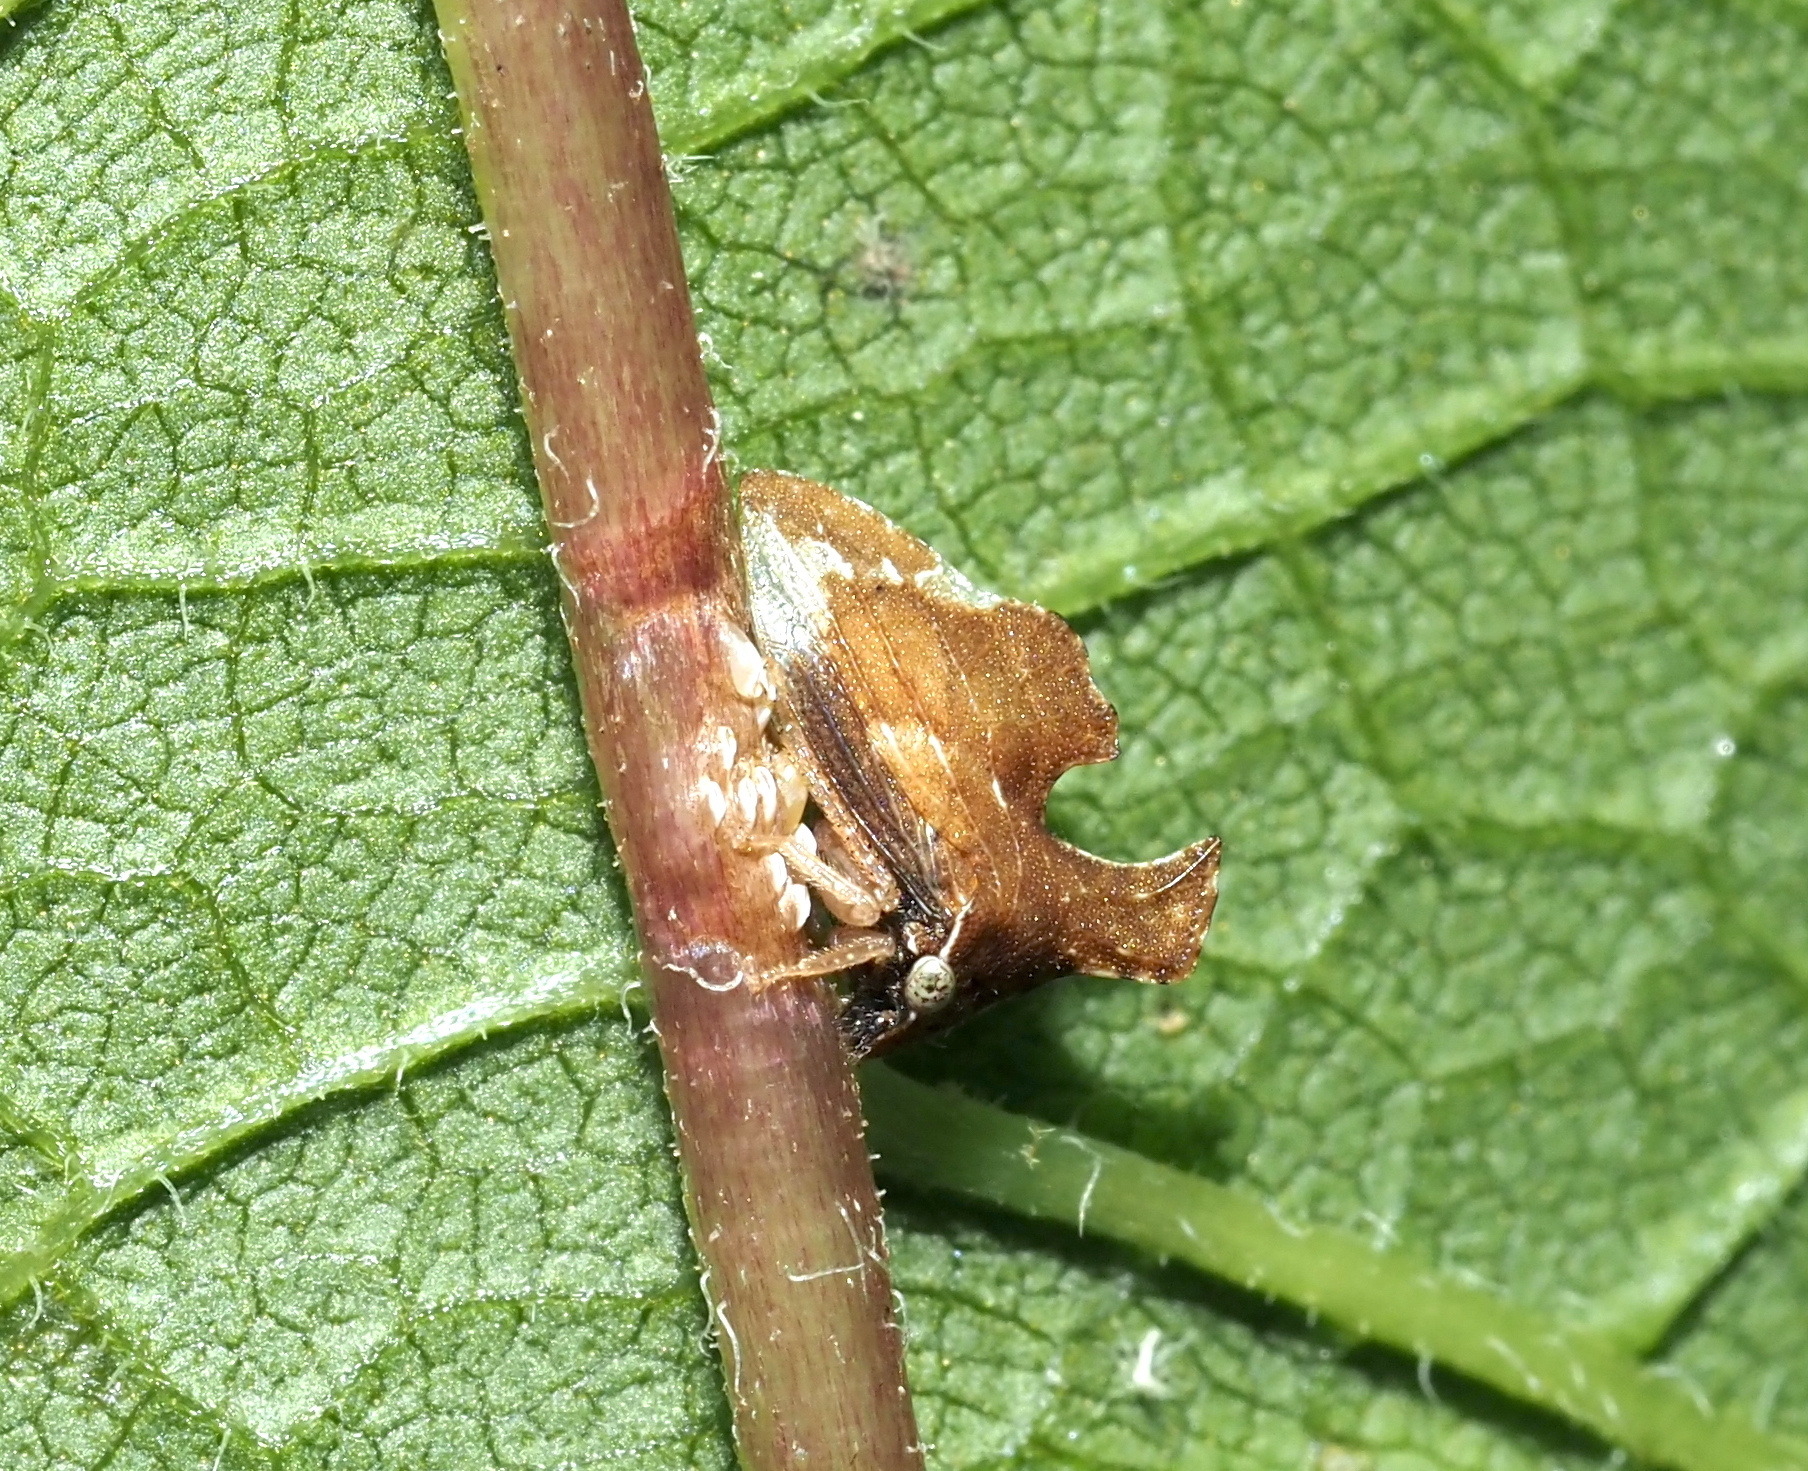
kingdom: Animalia
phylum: Arthropoda
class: Insecta
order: Hemiptera
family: Membracidae
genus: Entylia
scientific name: Entylia carinata
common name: Keeled treehopper
